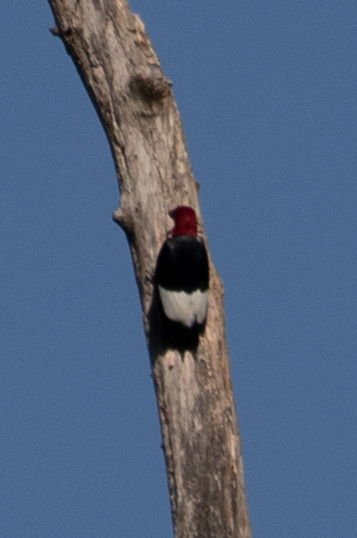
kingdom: Animalia
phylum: Chordata
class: Aves
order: Piciformes
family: Picidae
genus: Melanerpes
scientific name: Melanerpes erythrocephalus
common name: Red-headed woodpecker
